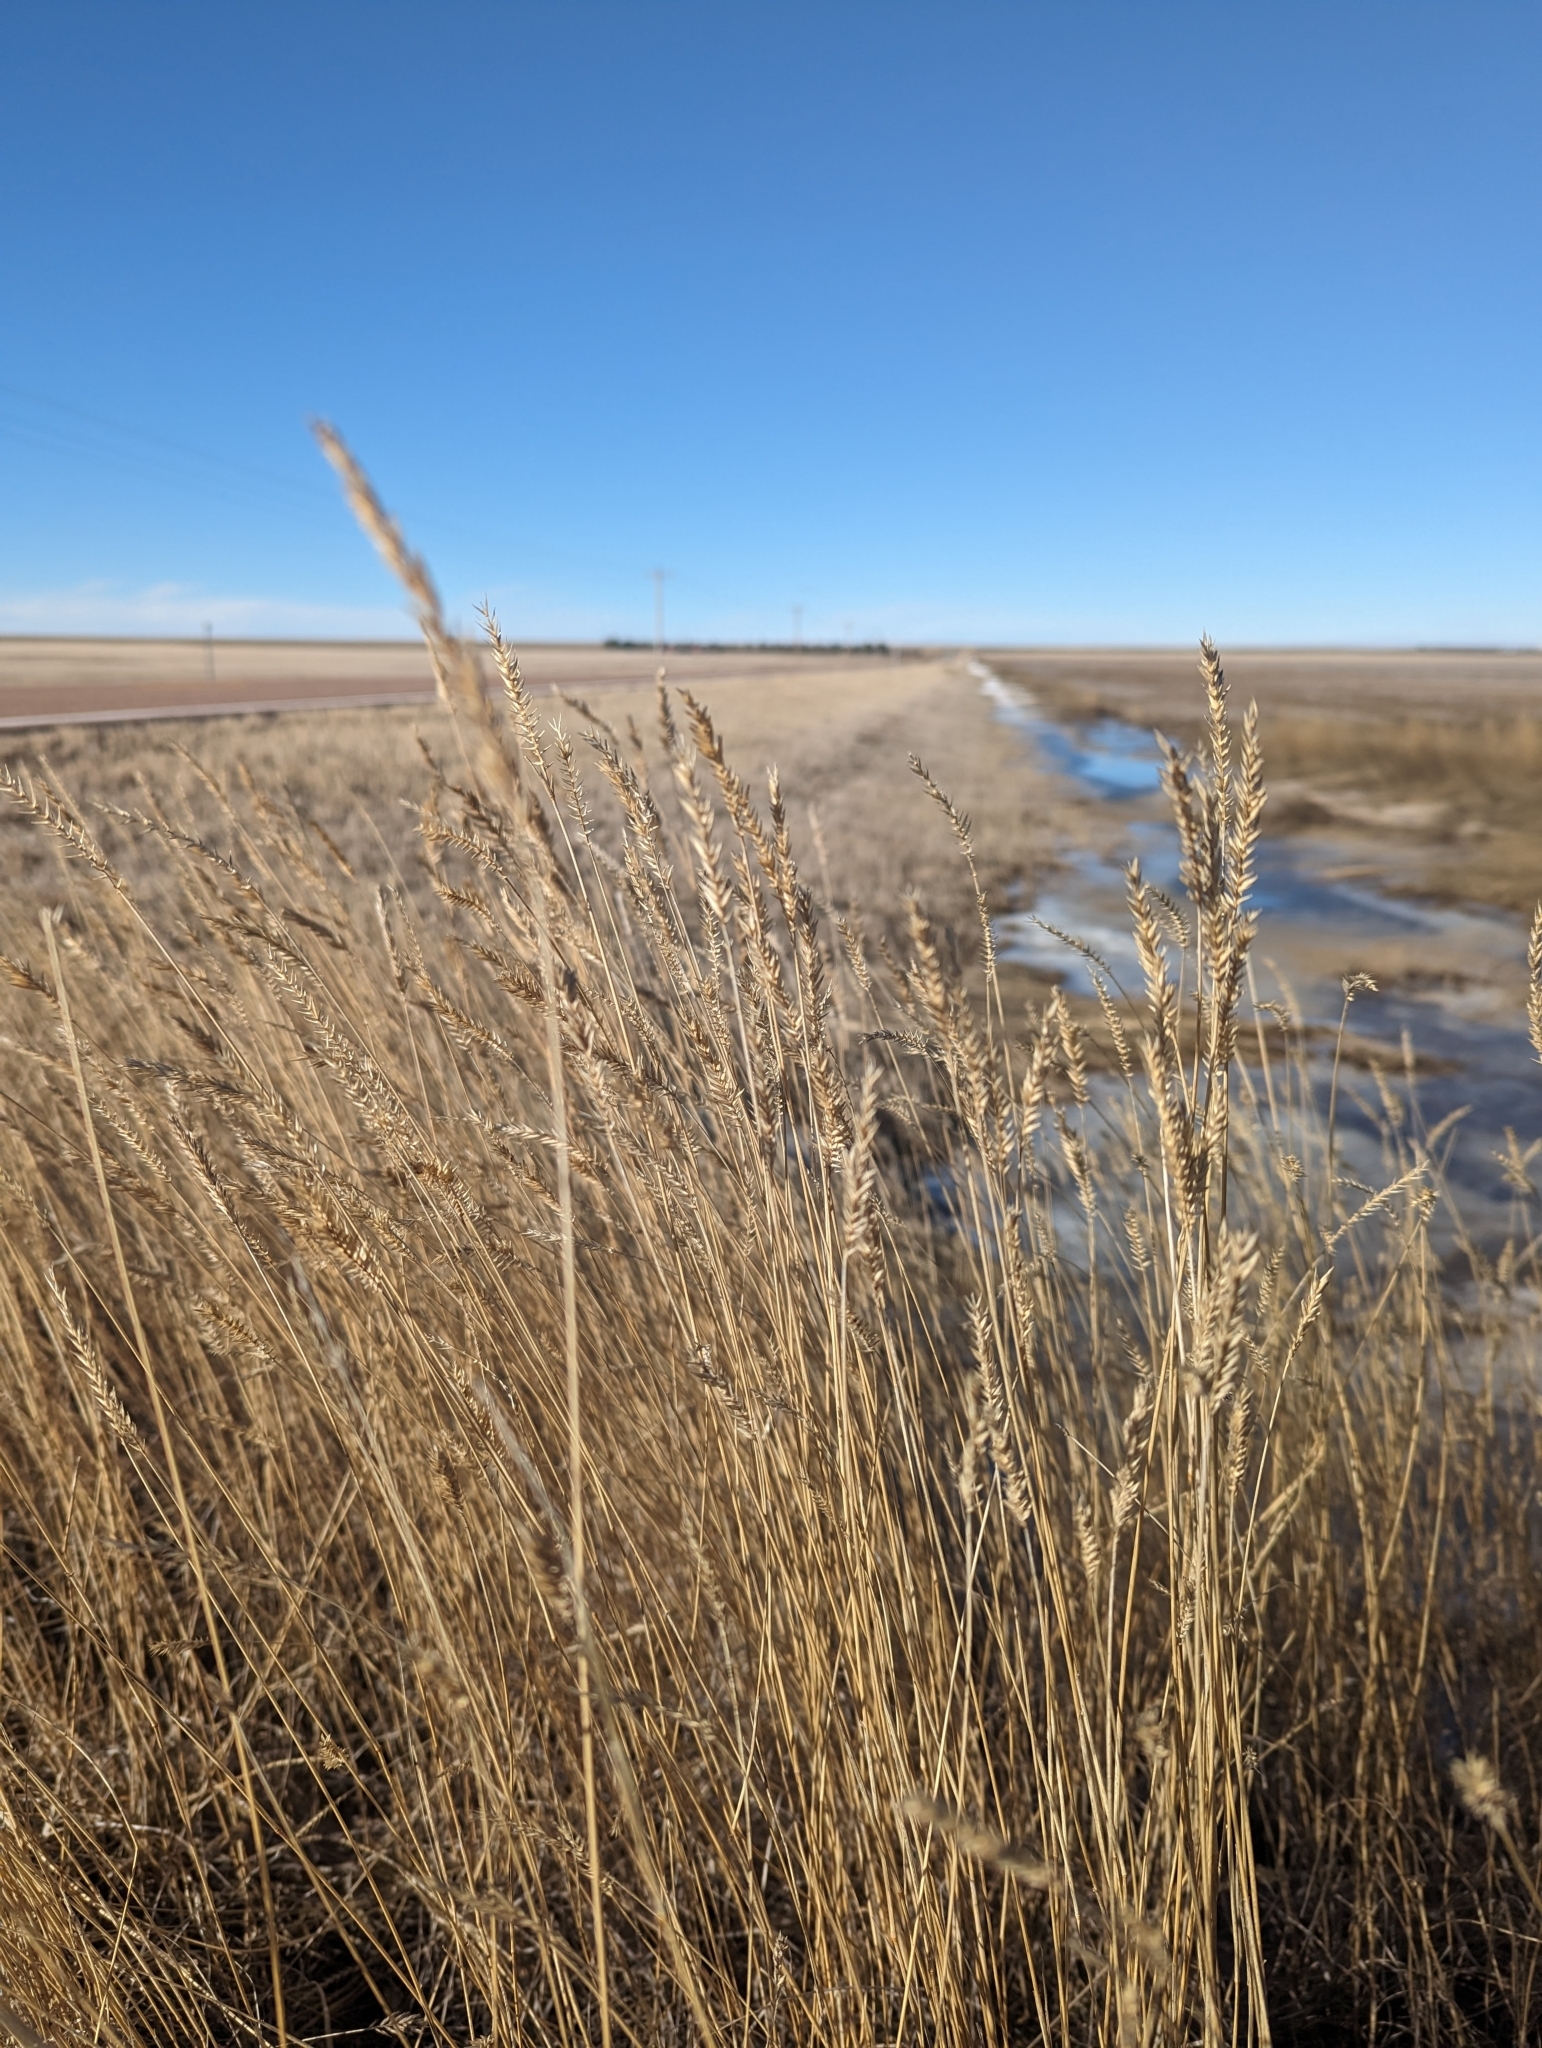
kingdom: Plantae
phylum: Tracheophyta
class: Liliopsida
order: Poales
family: Poaceae
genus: Agropyron
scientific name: Agropyron cristatum
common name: Crested wheatgrass
